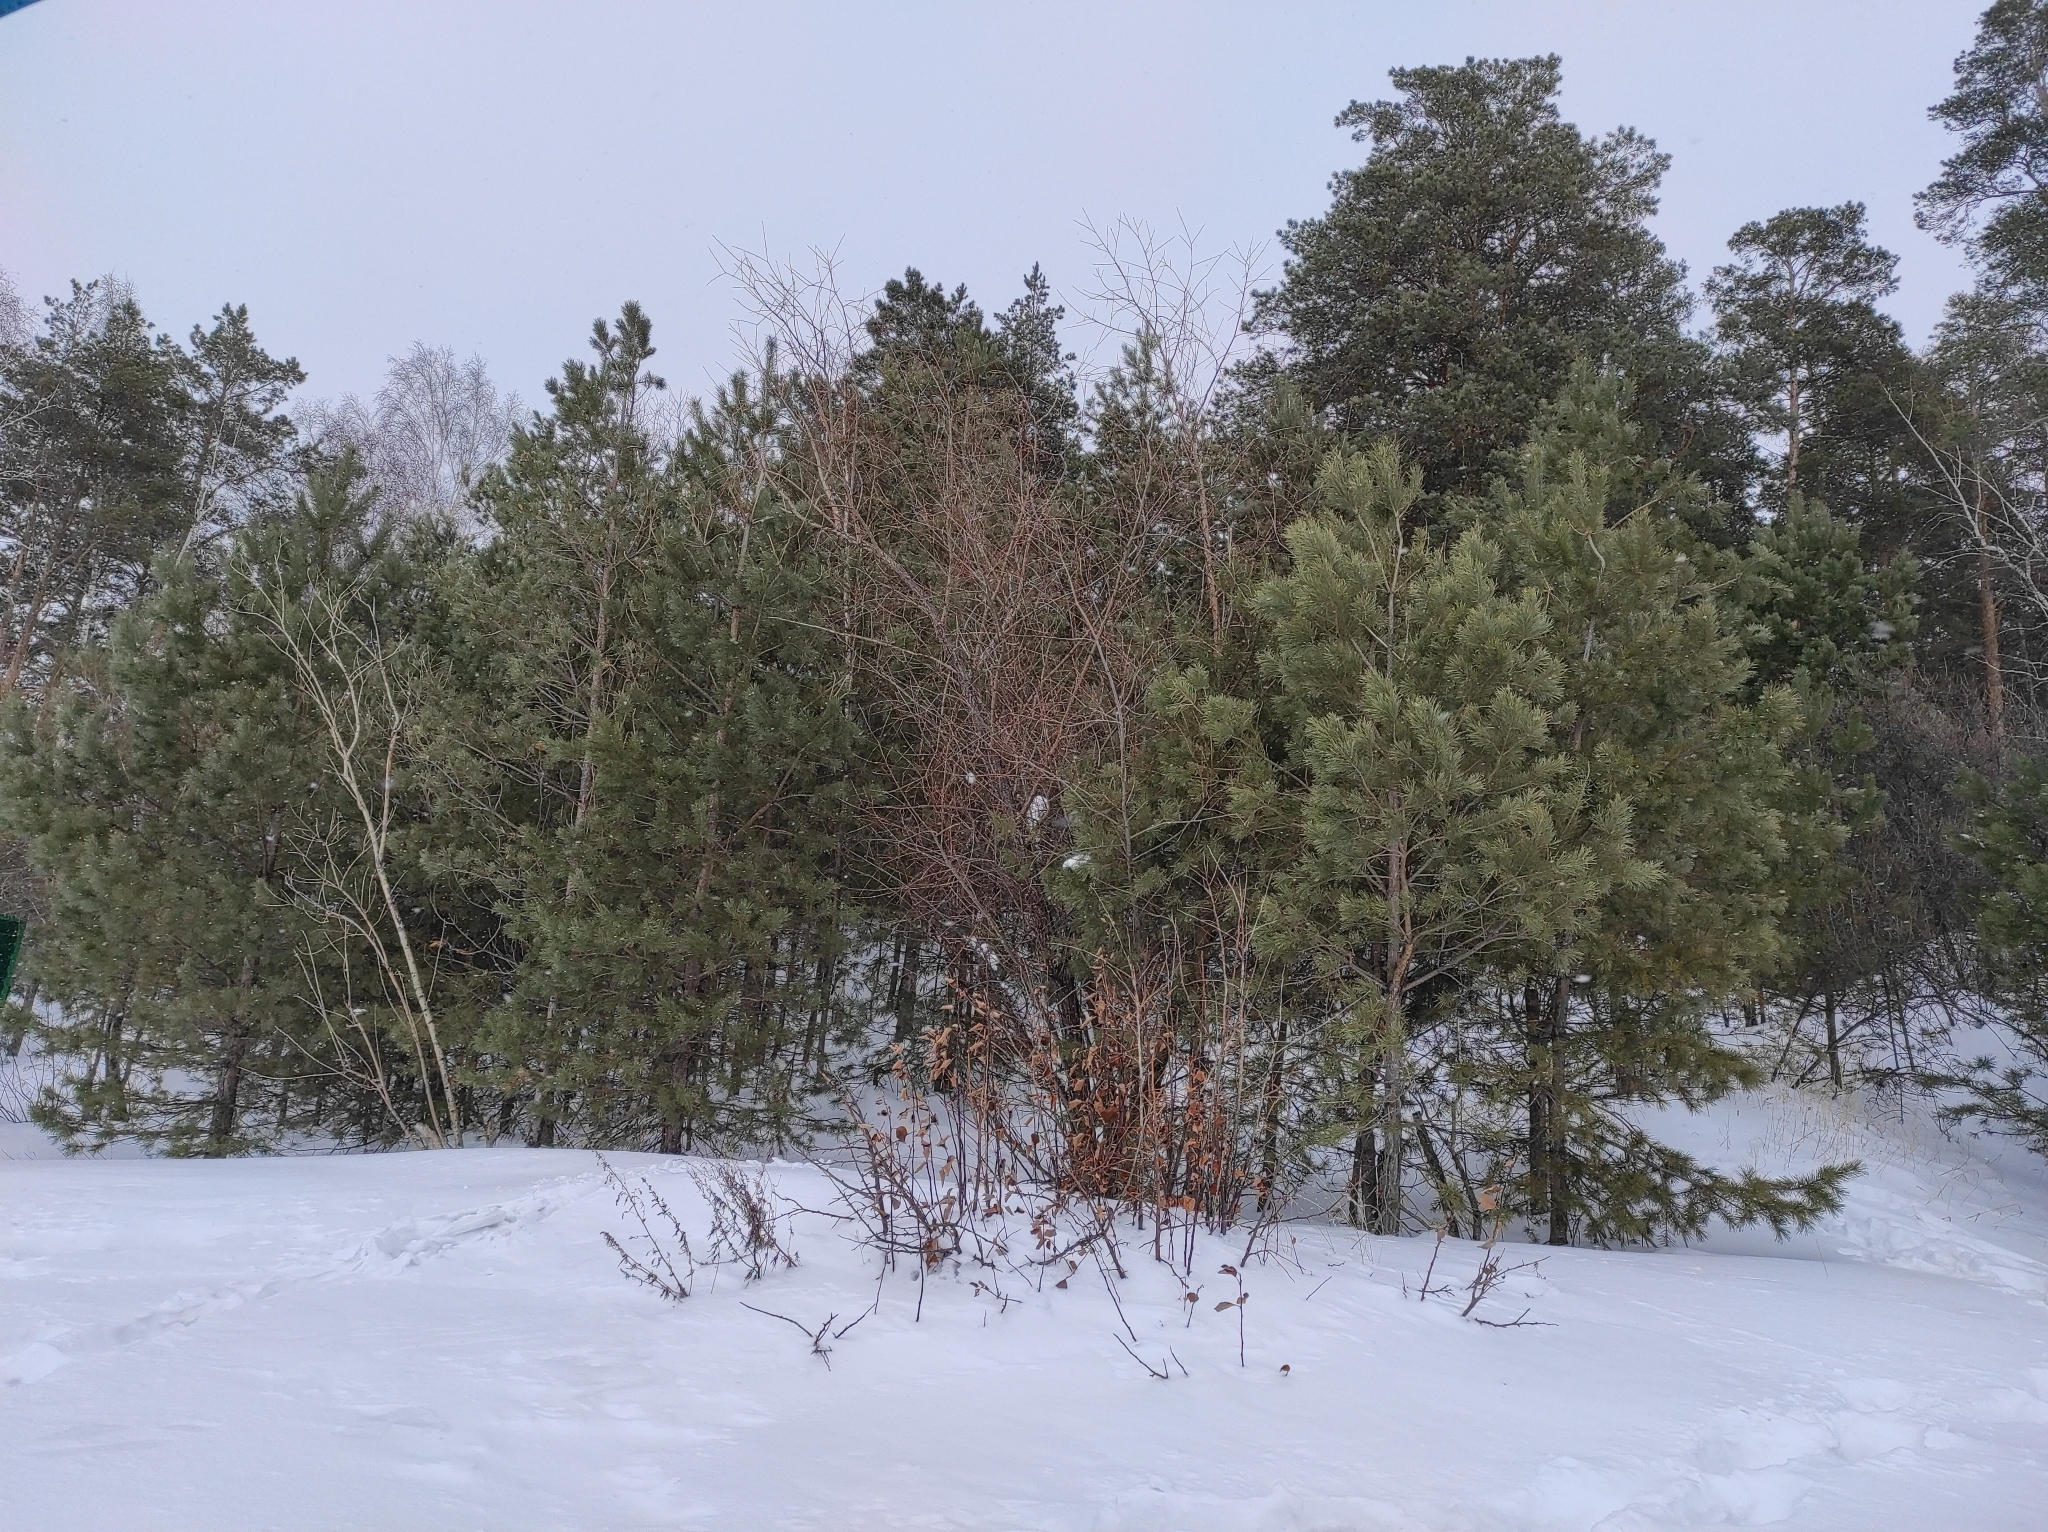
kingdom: Plantae
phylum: Tracheophyta
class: Pinopsida
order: Pinales
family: Pinaceae
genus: Pinus
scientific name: Pinus sylvestris
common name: Scots pine
